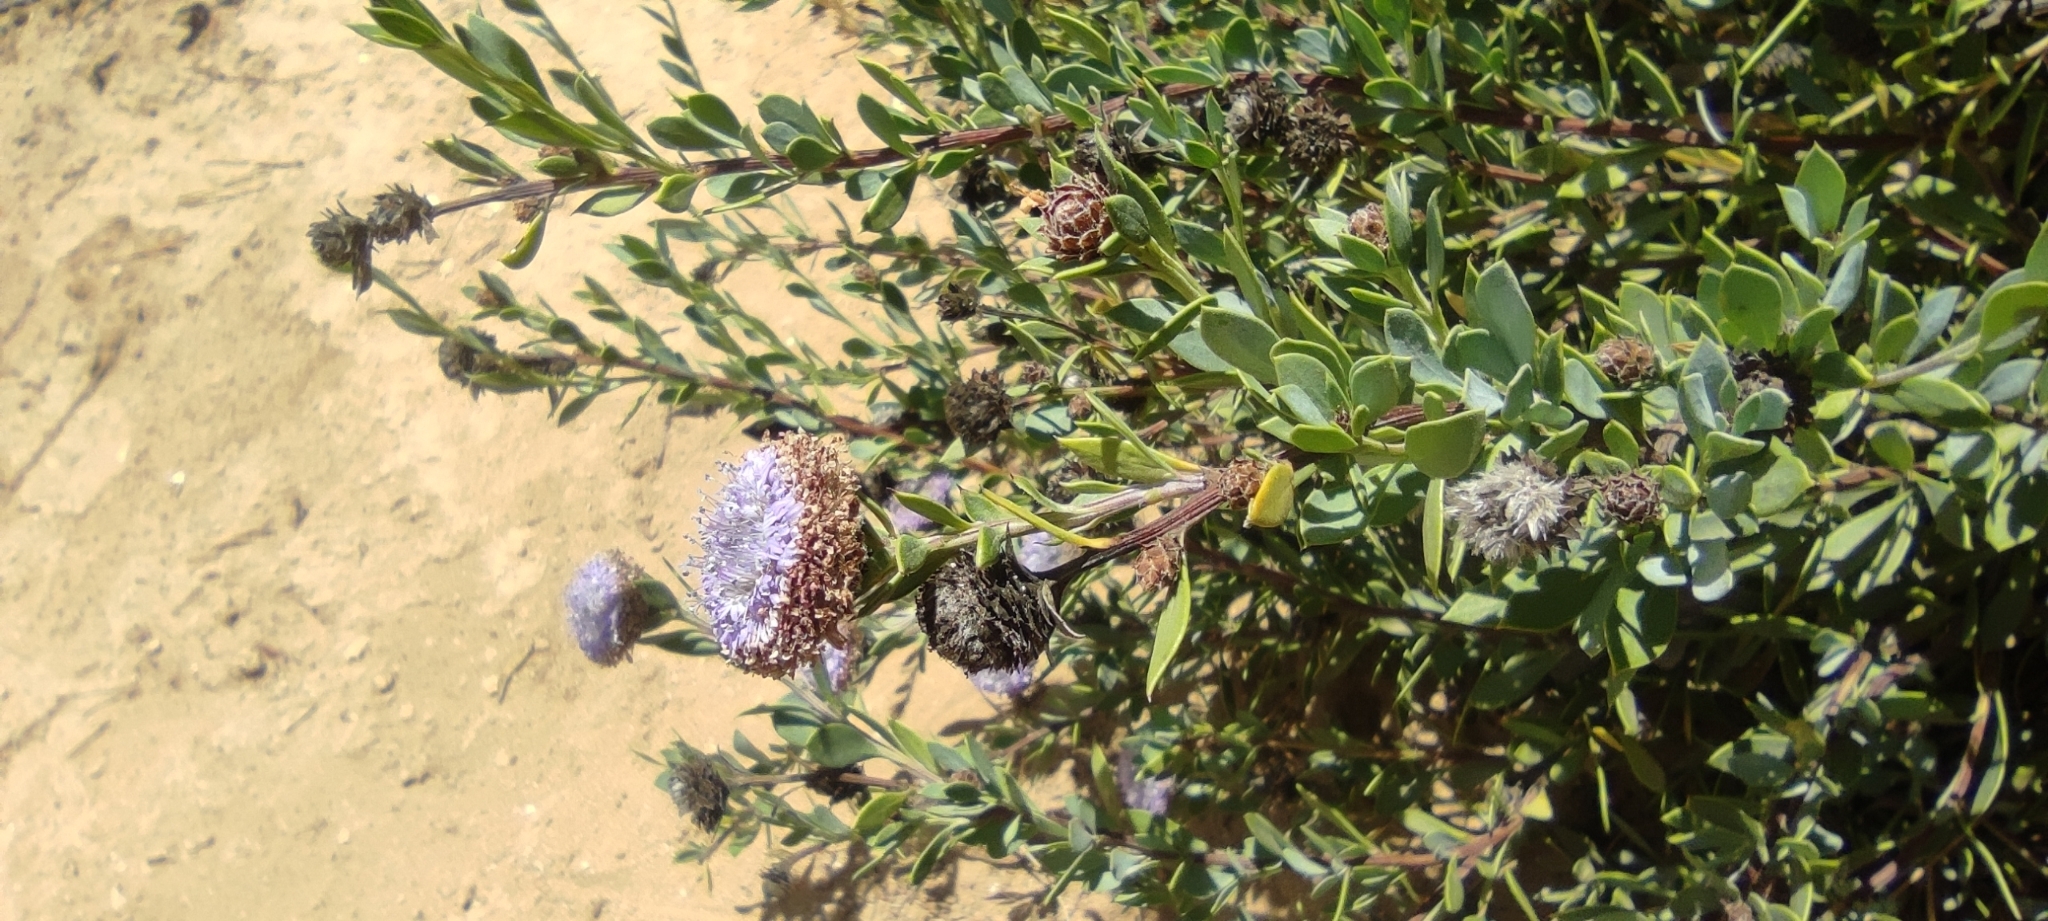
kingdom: Plantae
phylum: Tracheophyta
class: Magnoliopsida
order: Lamiales
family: Plantaginaceae
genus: Globularia
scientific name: Globularia alypum
